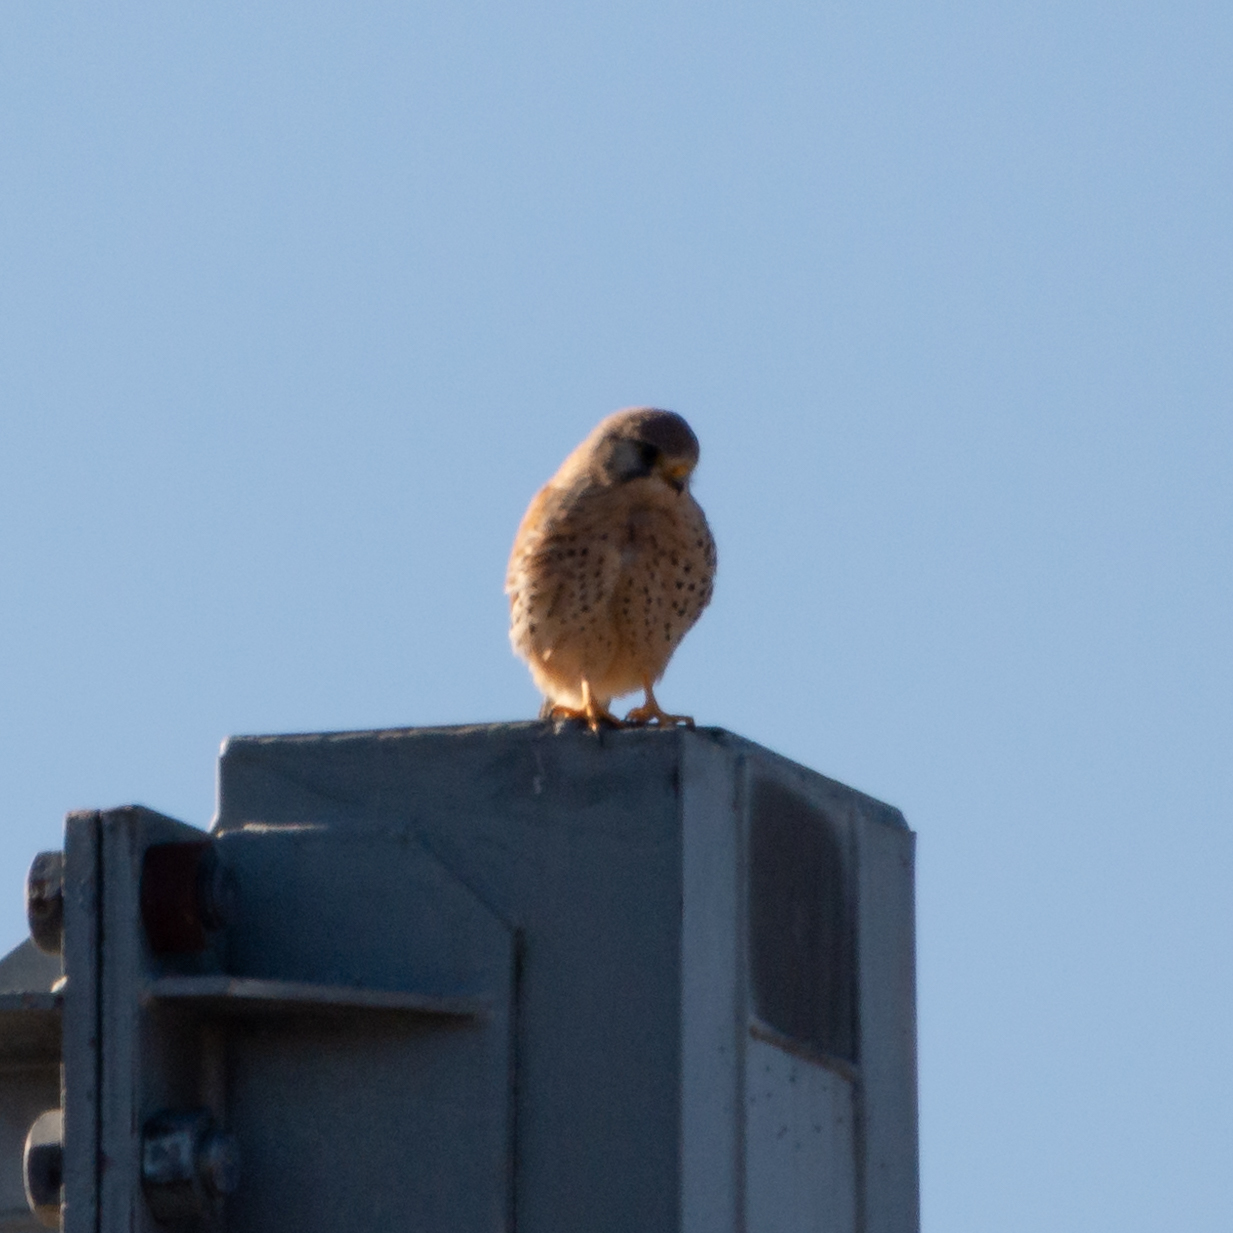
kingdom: Animalia
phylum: Chordata
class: Aves
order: Falconiformes
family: Falconidae
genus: Falco
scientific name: Falco tinnunculus
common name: Common kestrel
